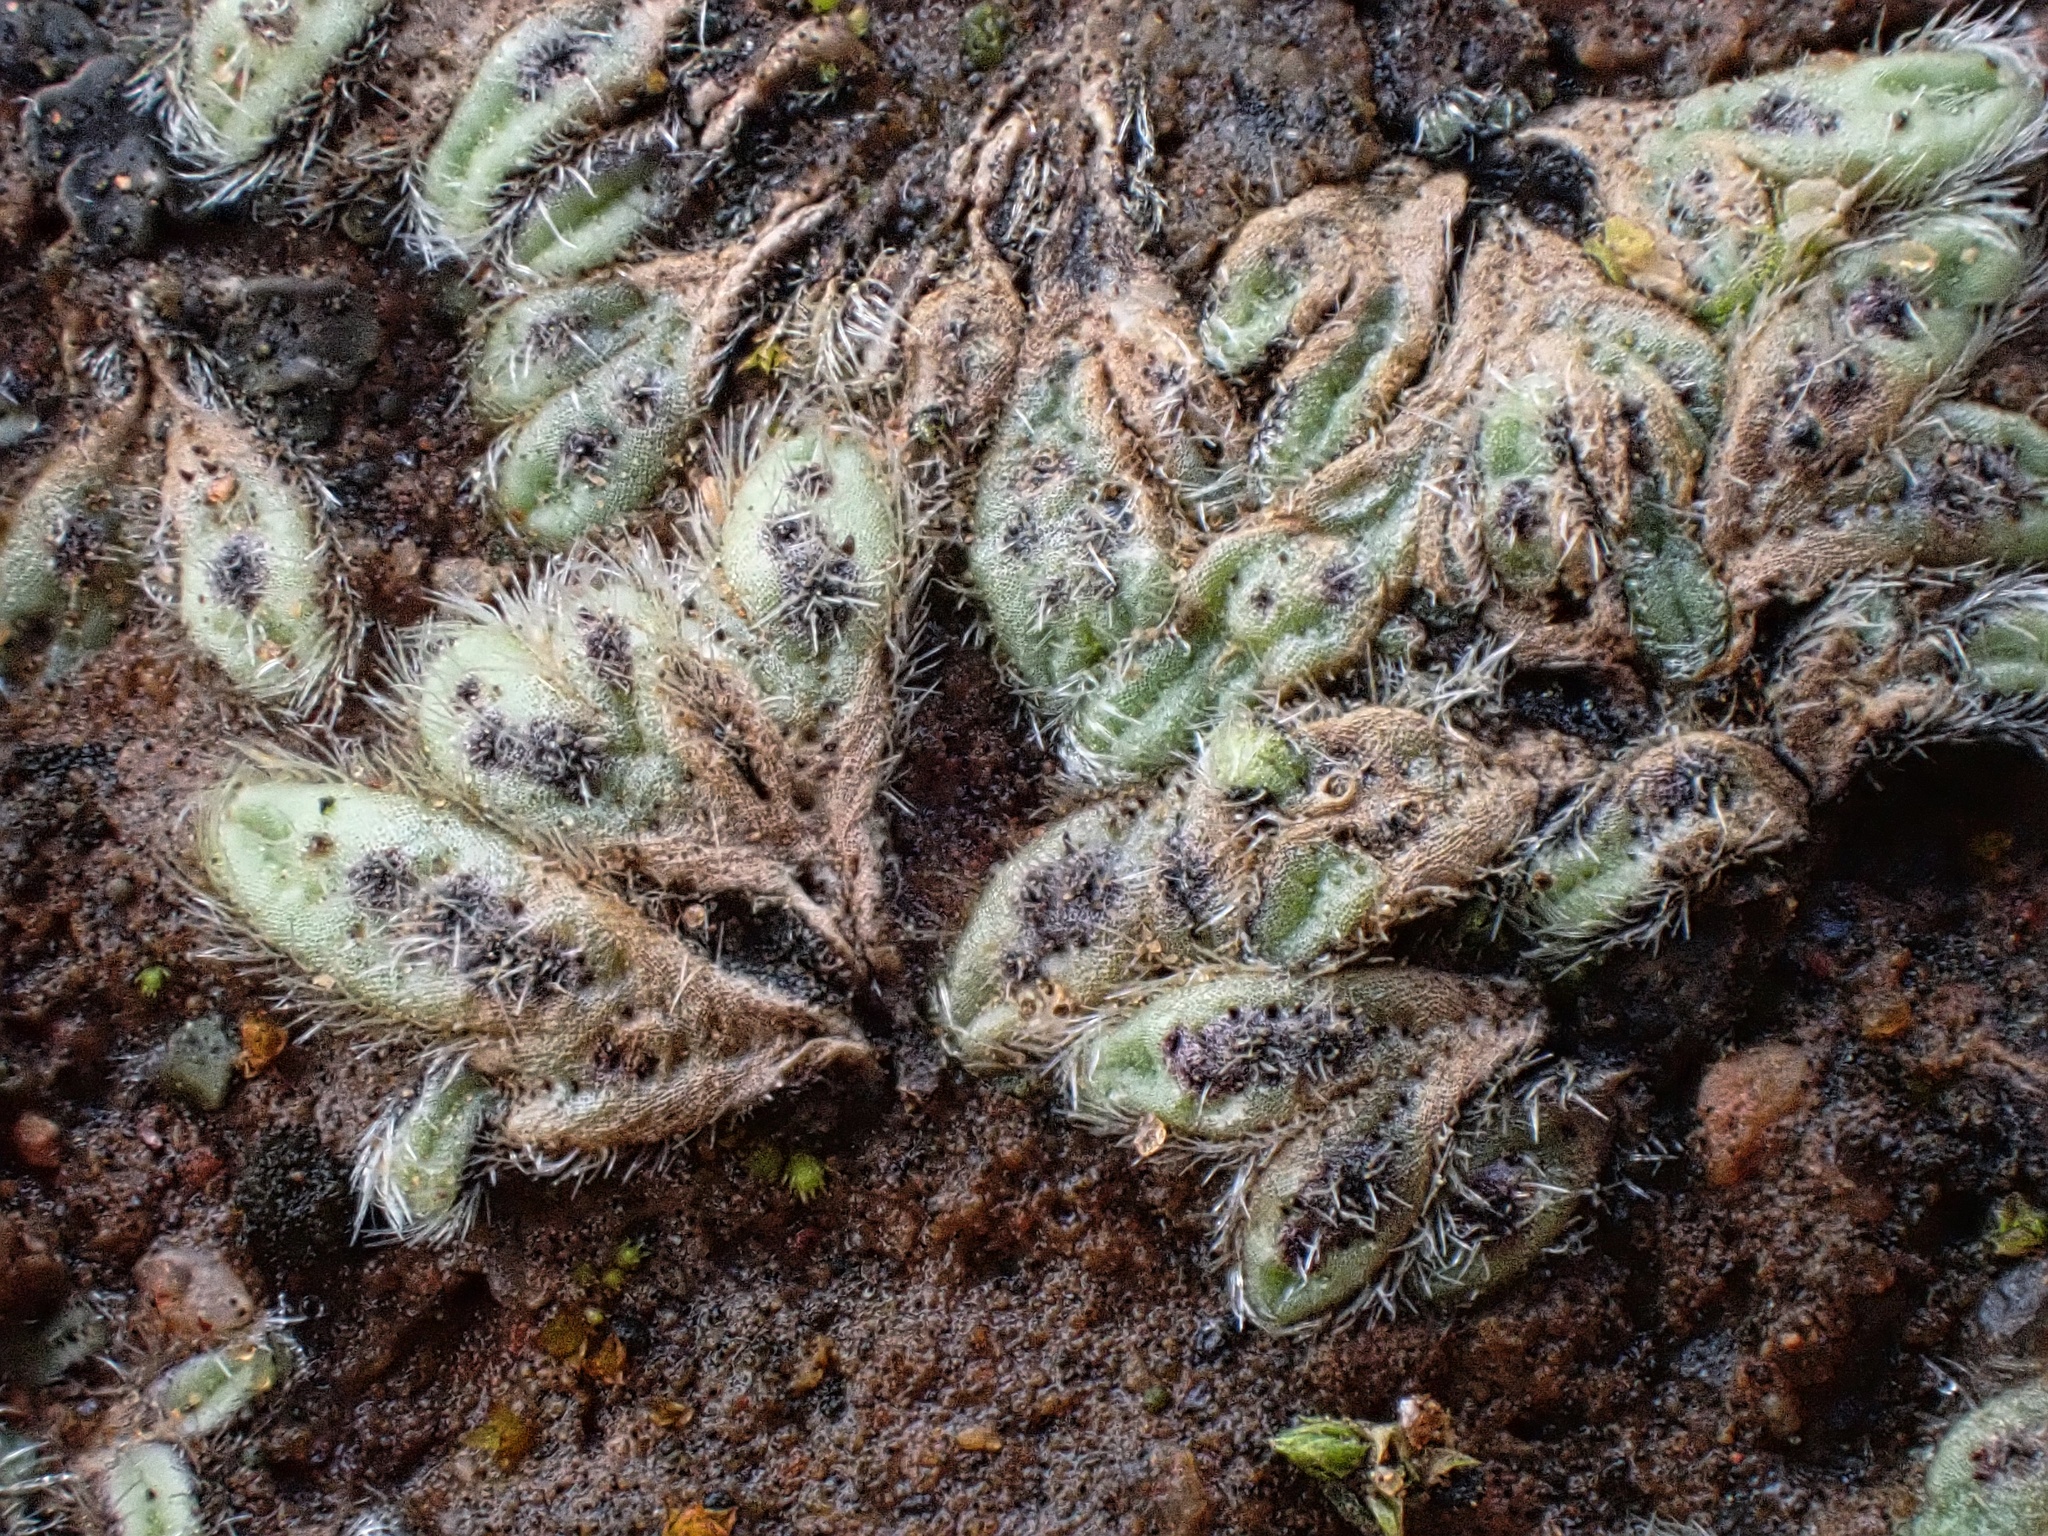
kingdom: Plantae
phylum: Marchantiophyta
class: Marchantiopsida
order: Marchantiales
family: Ricciaceae
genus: Riccia
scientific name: Riccia trichocarpa
